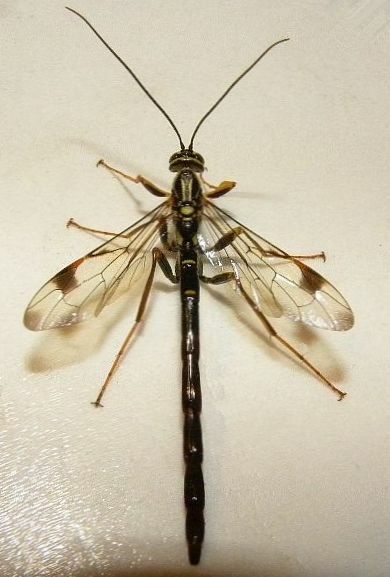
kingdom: Animalia
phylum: Arthropoda
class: Insecta
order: Hymenoptera
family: Ichneumonidae
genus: Megarhyssa
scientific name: Megarhyssa macrura
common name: Long-tailed giant ichneumonid wasp
